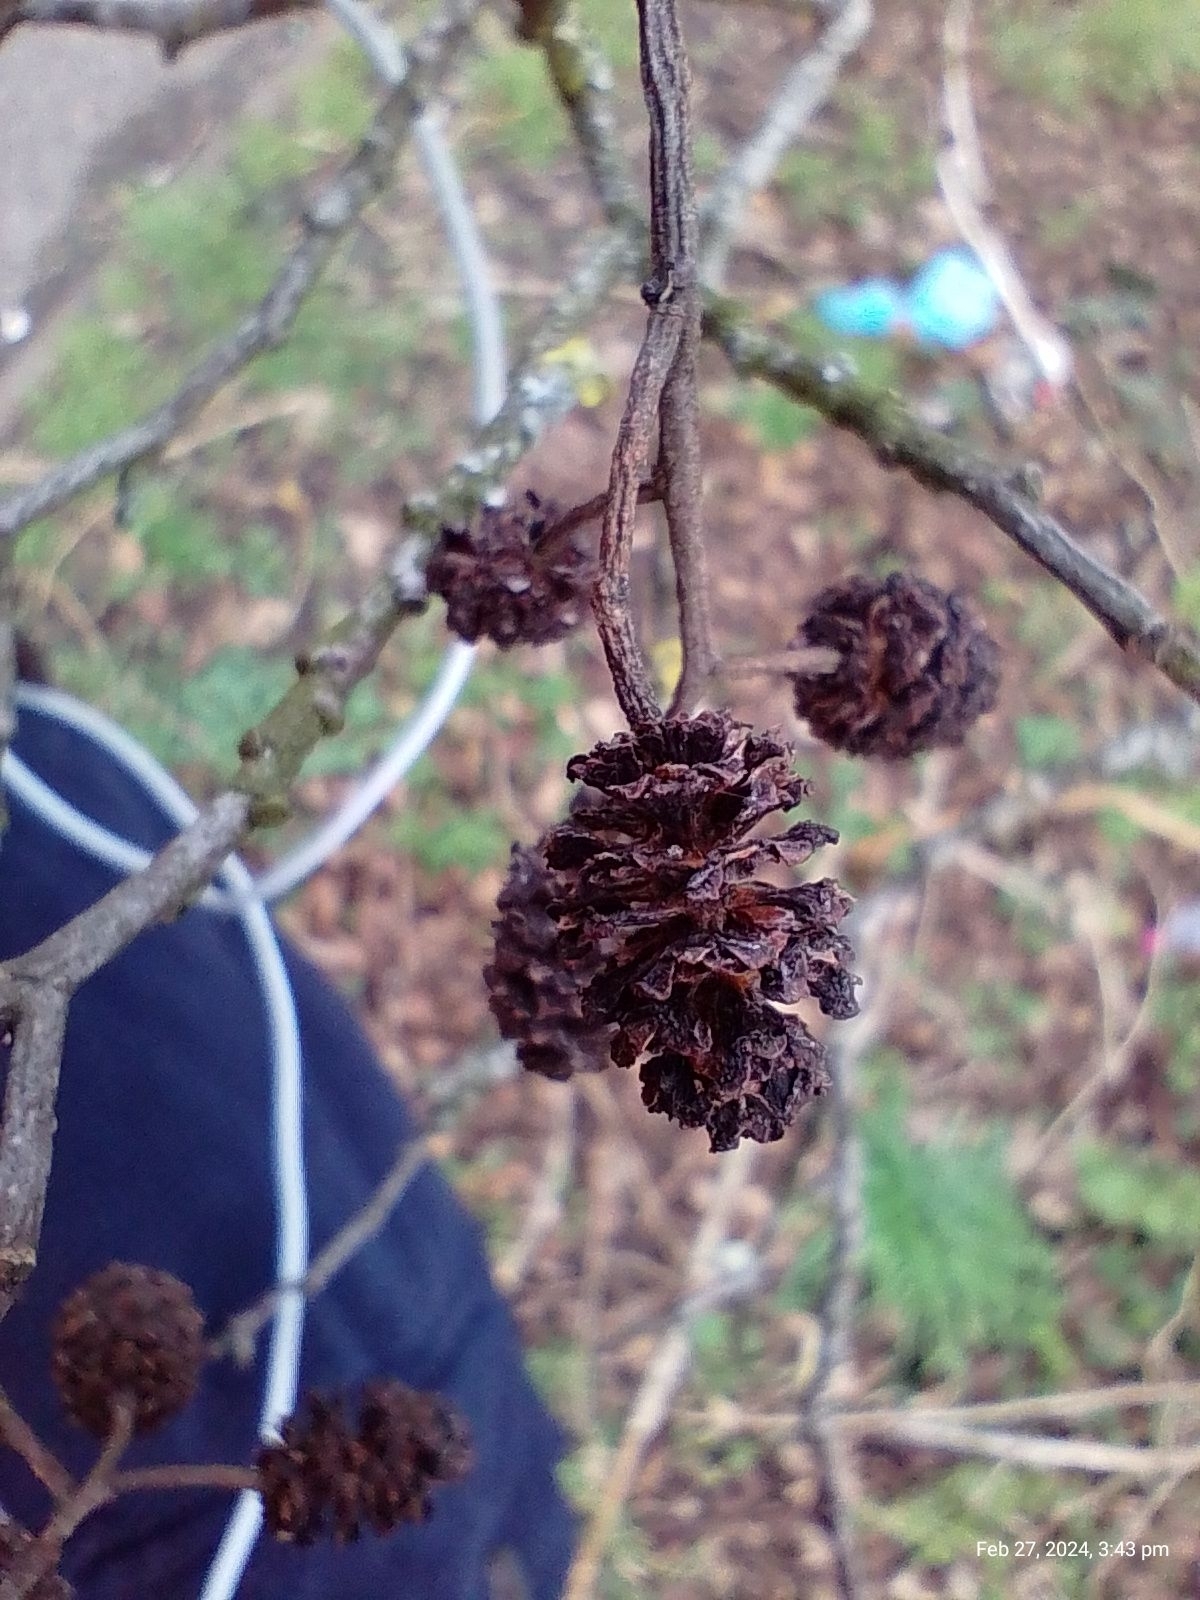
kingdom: Plantae
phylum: Tracheophyta
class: Magnoliopsida
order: Fagales
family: Betulaceae
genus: Alnus
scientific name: Alnus glutinosa
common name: Black alder
